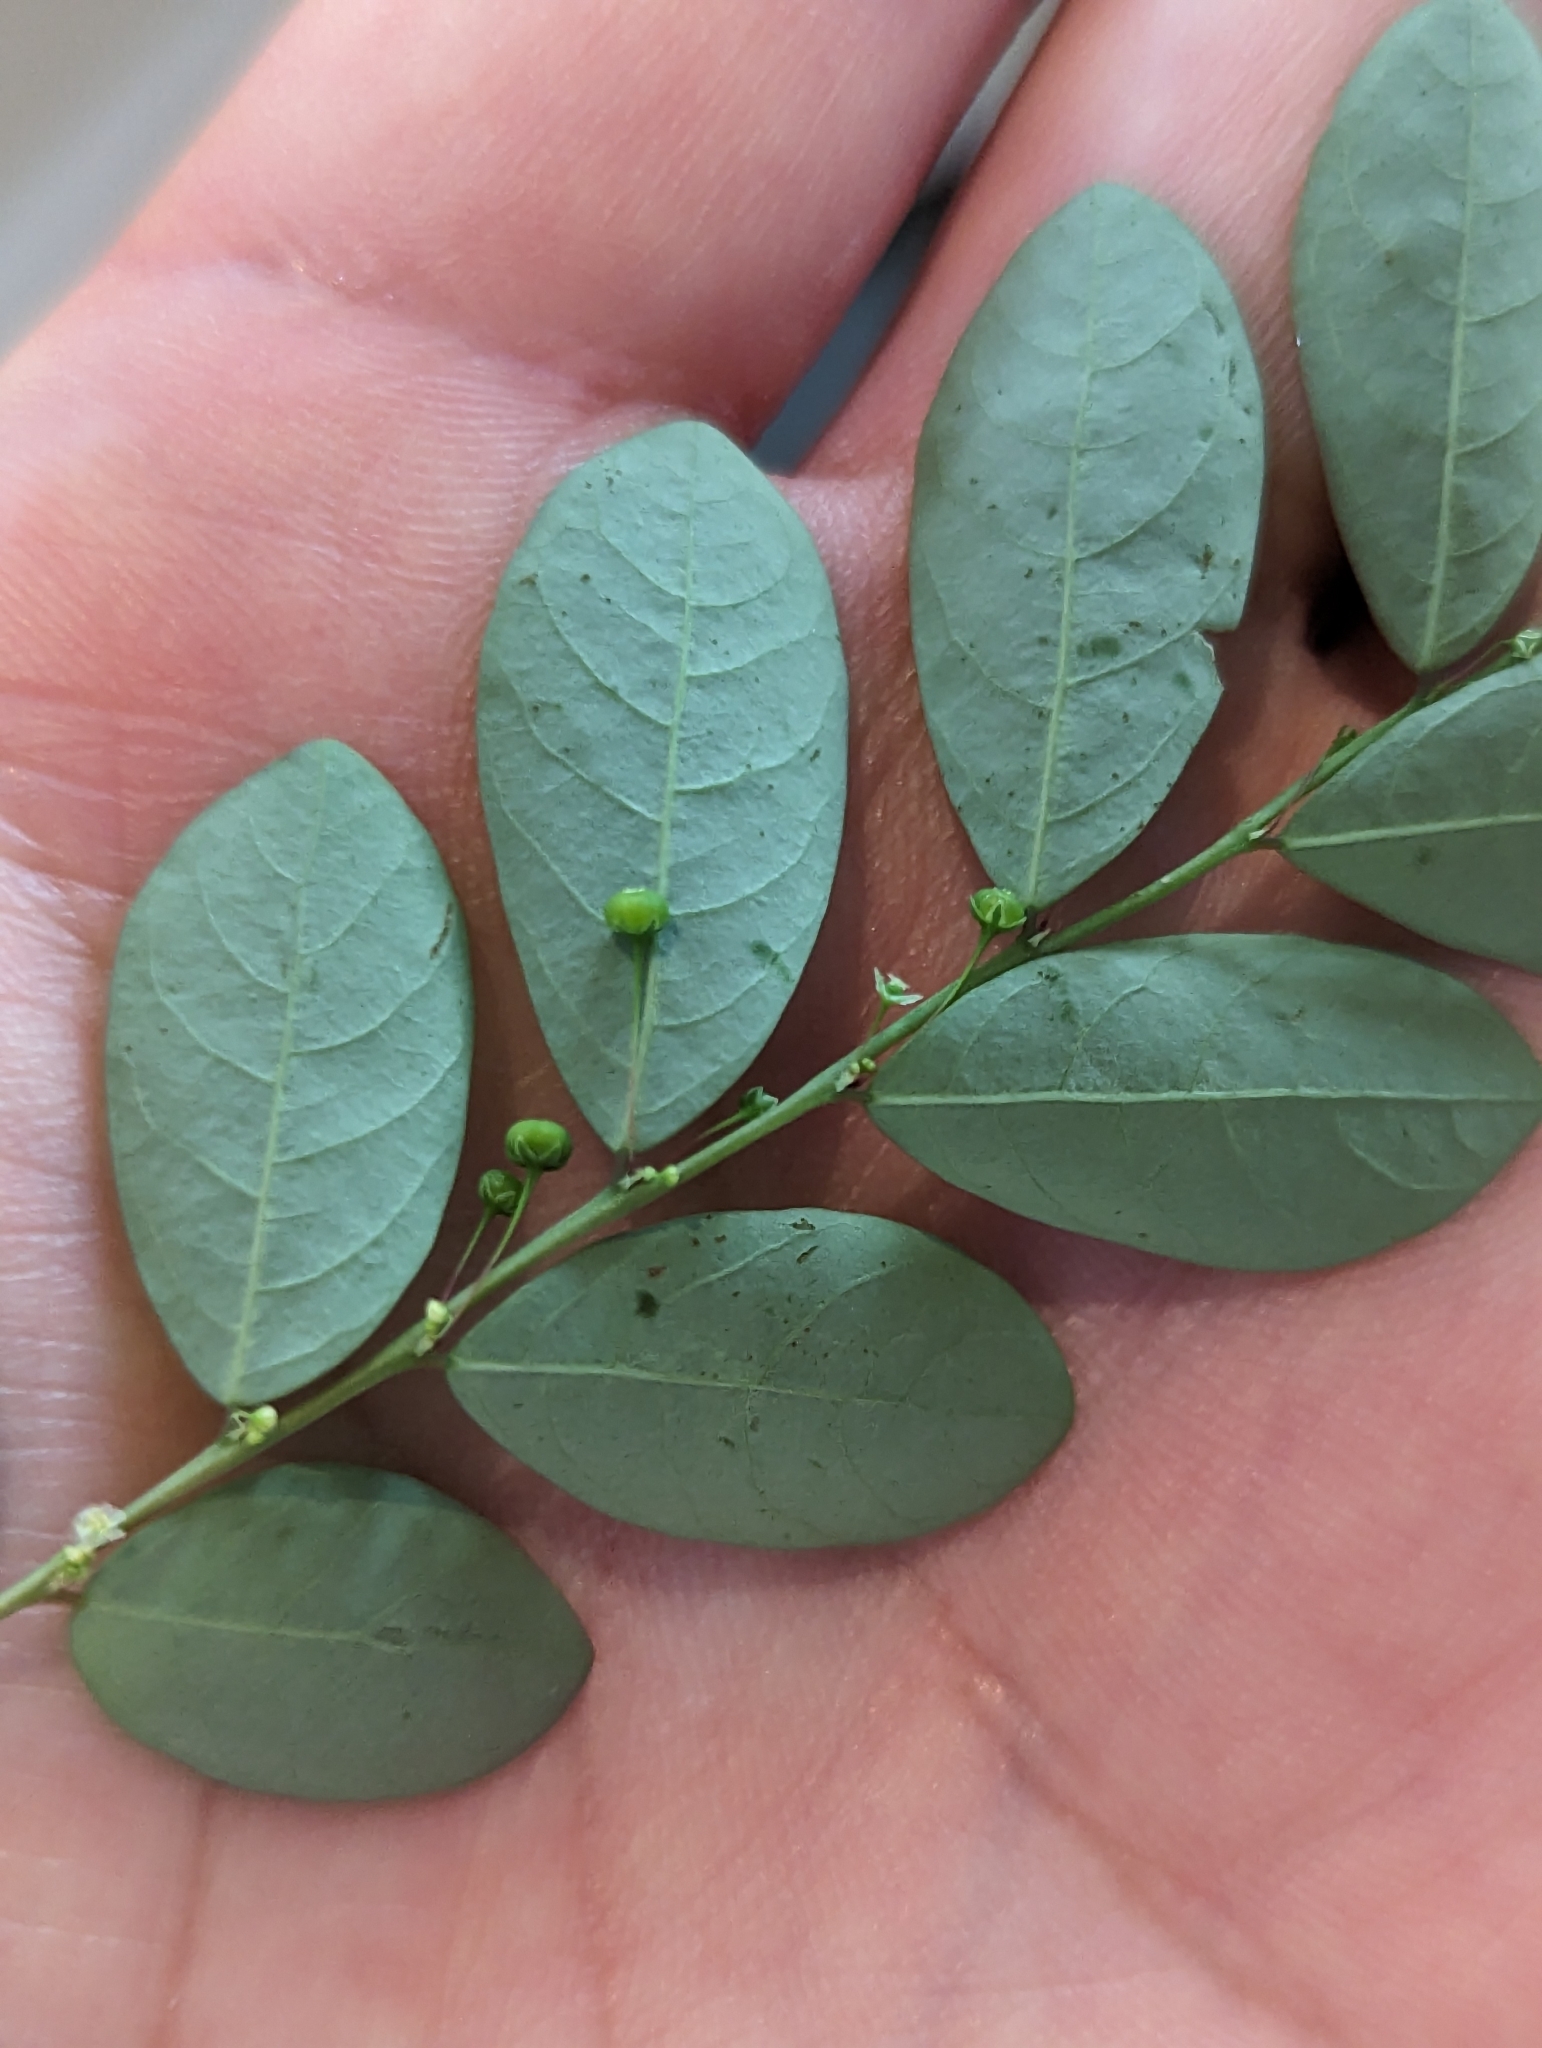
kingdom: Plantae
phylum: Tracheophyta
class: Magnoliopsida
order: Malpighiales
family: Phyllanthaceae
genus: Phyllanthus
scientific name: Phyllanthus tenellus
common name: Mascarene island leaf-flower
